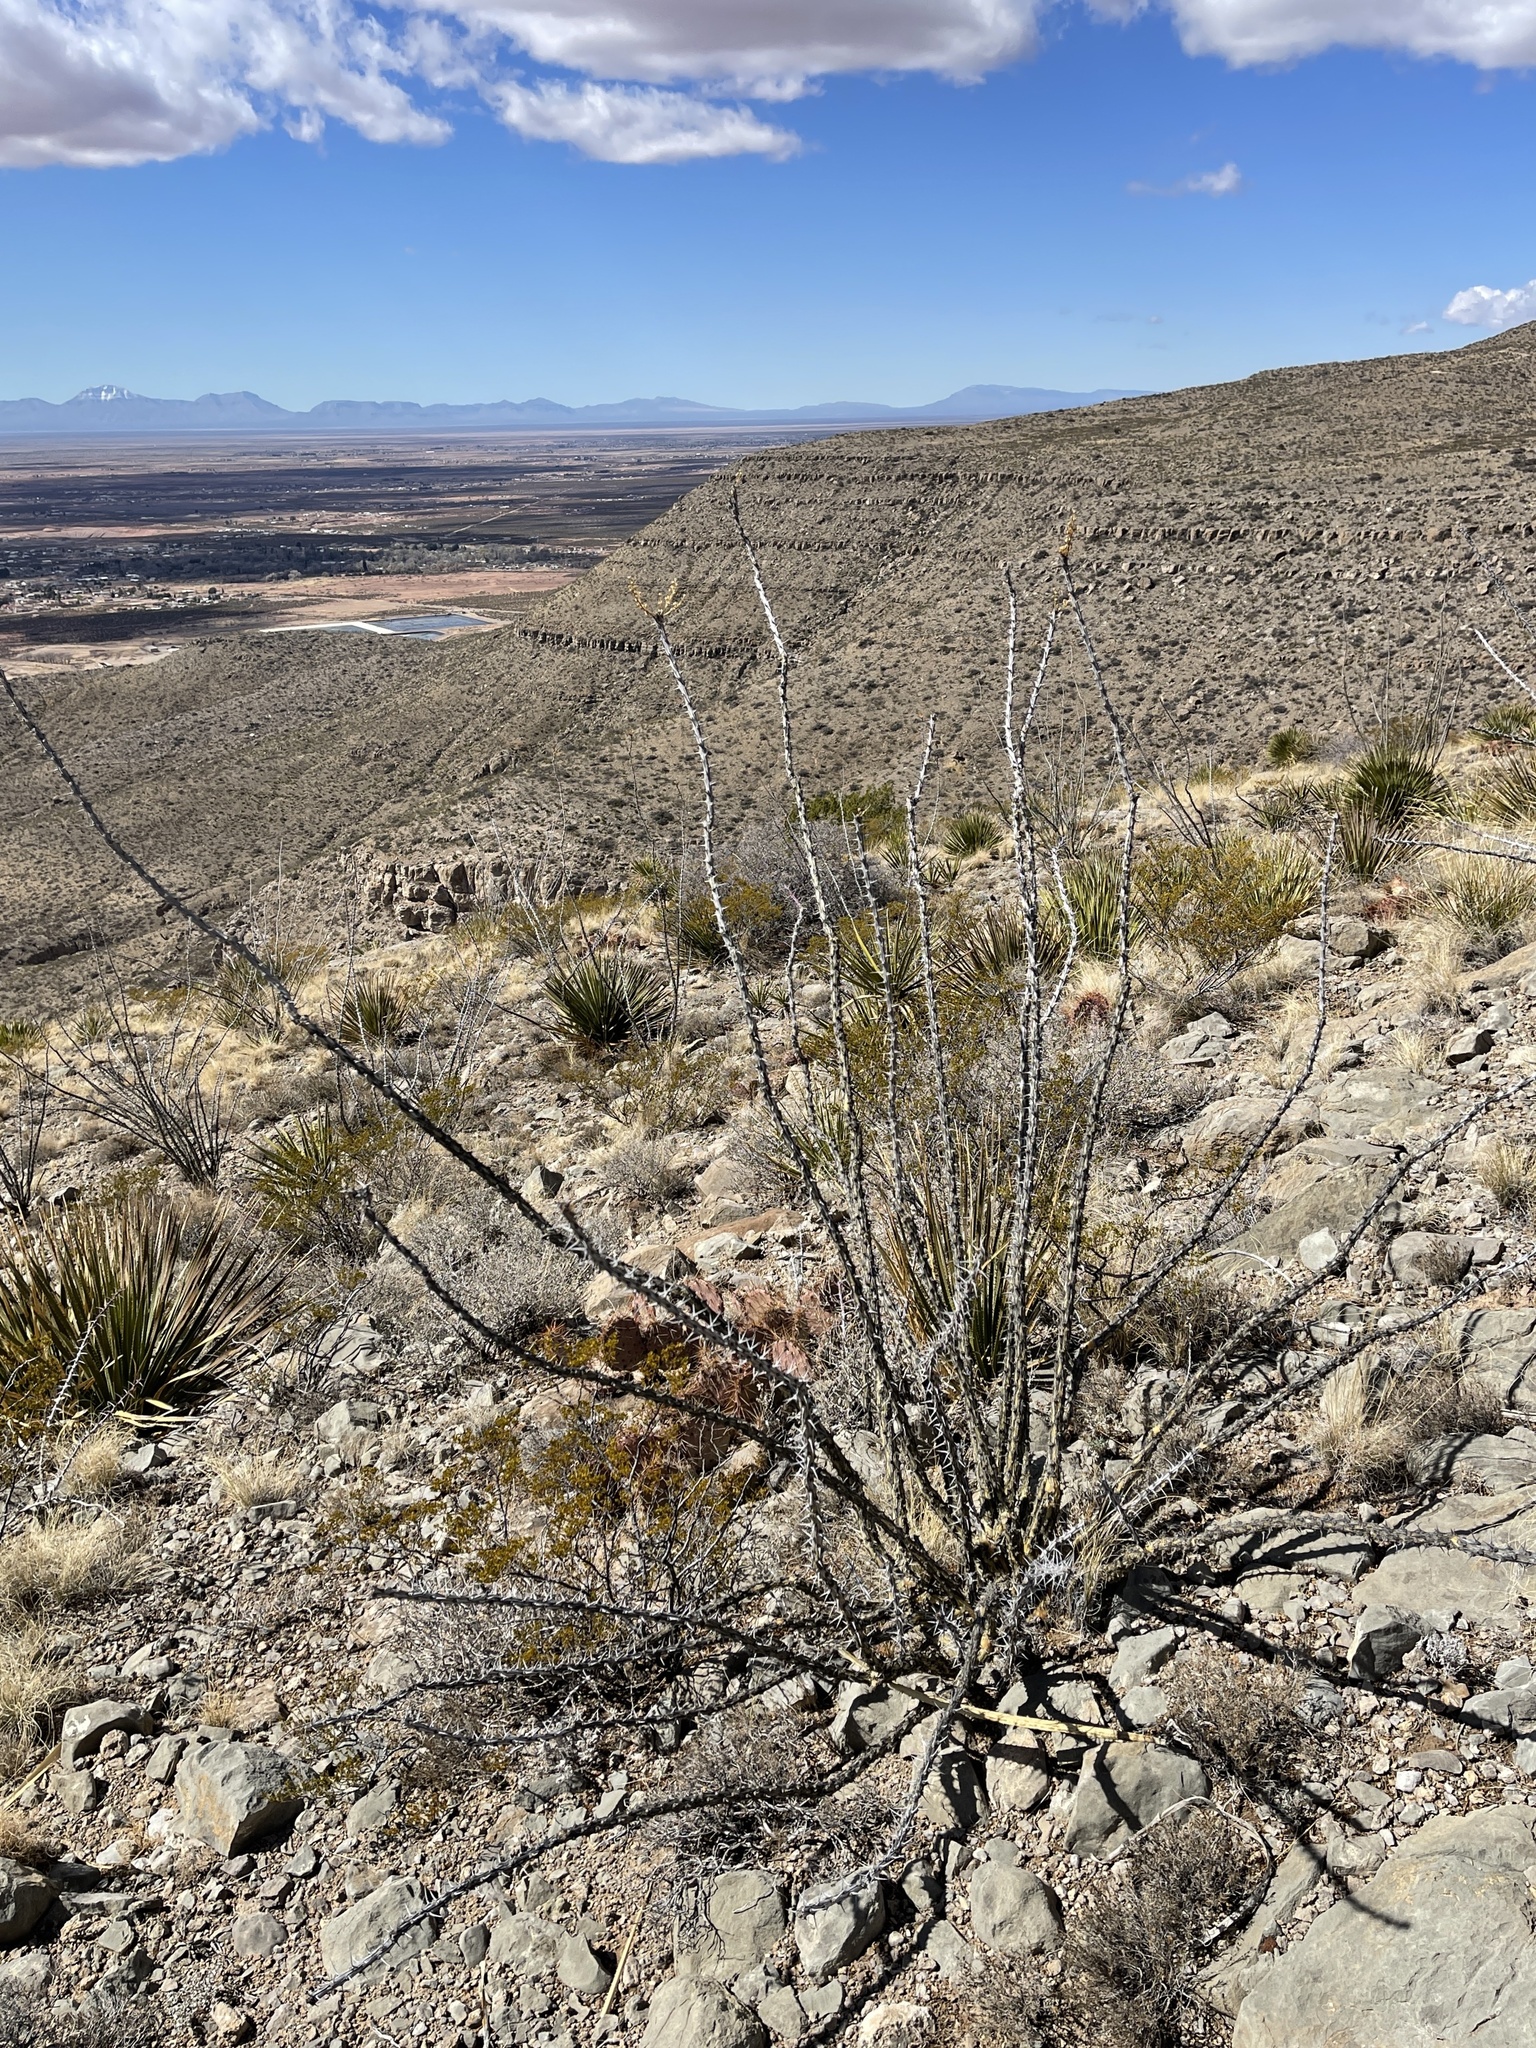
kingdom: Plantae
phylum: Tracheophyta
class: Magnoliopsida
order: Ericales
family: Fouquieriaceae
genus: Fouquieria
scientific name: Fouquieria splendens
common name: Vine-cactus
